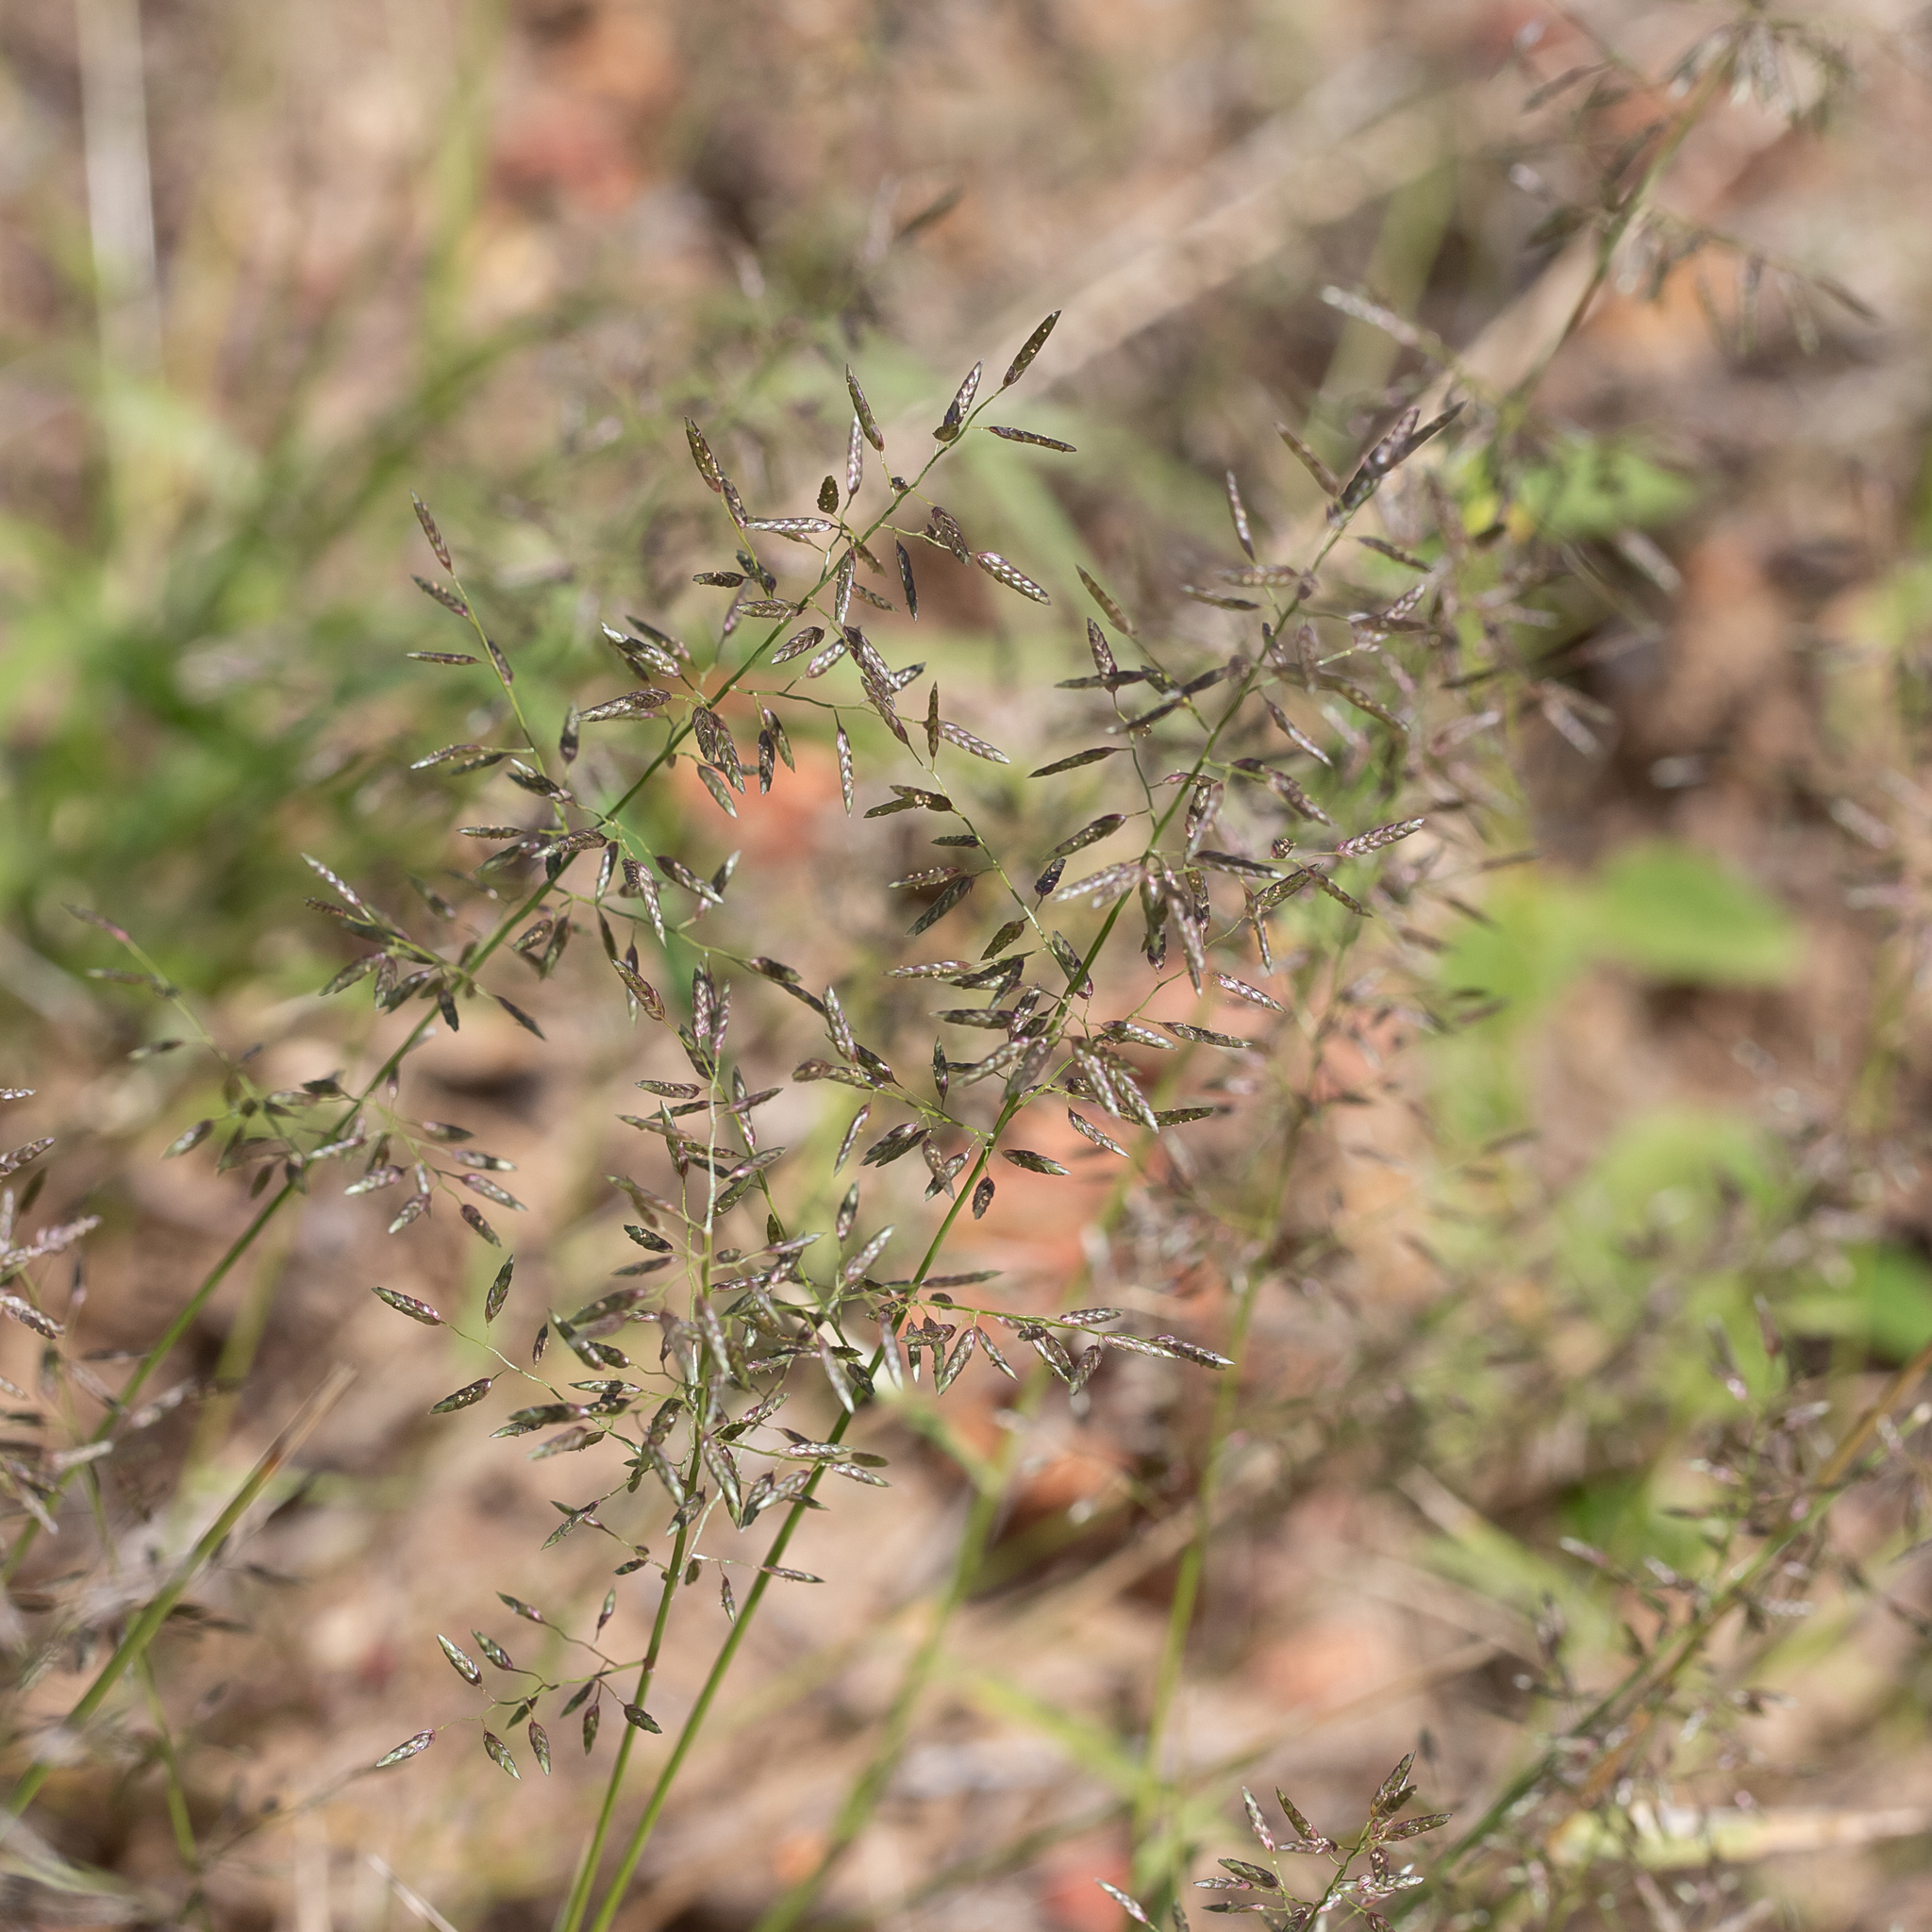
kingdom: Plantae
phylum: Tracheophyta
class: Liliopsida
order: Poales
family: Poaceae
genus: Eragrostis
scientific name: Eragrostis cilianensis
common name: Stinkgrass
